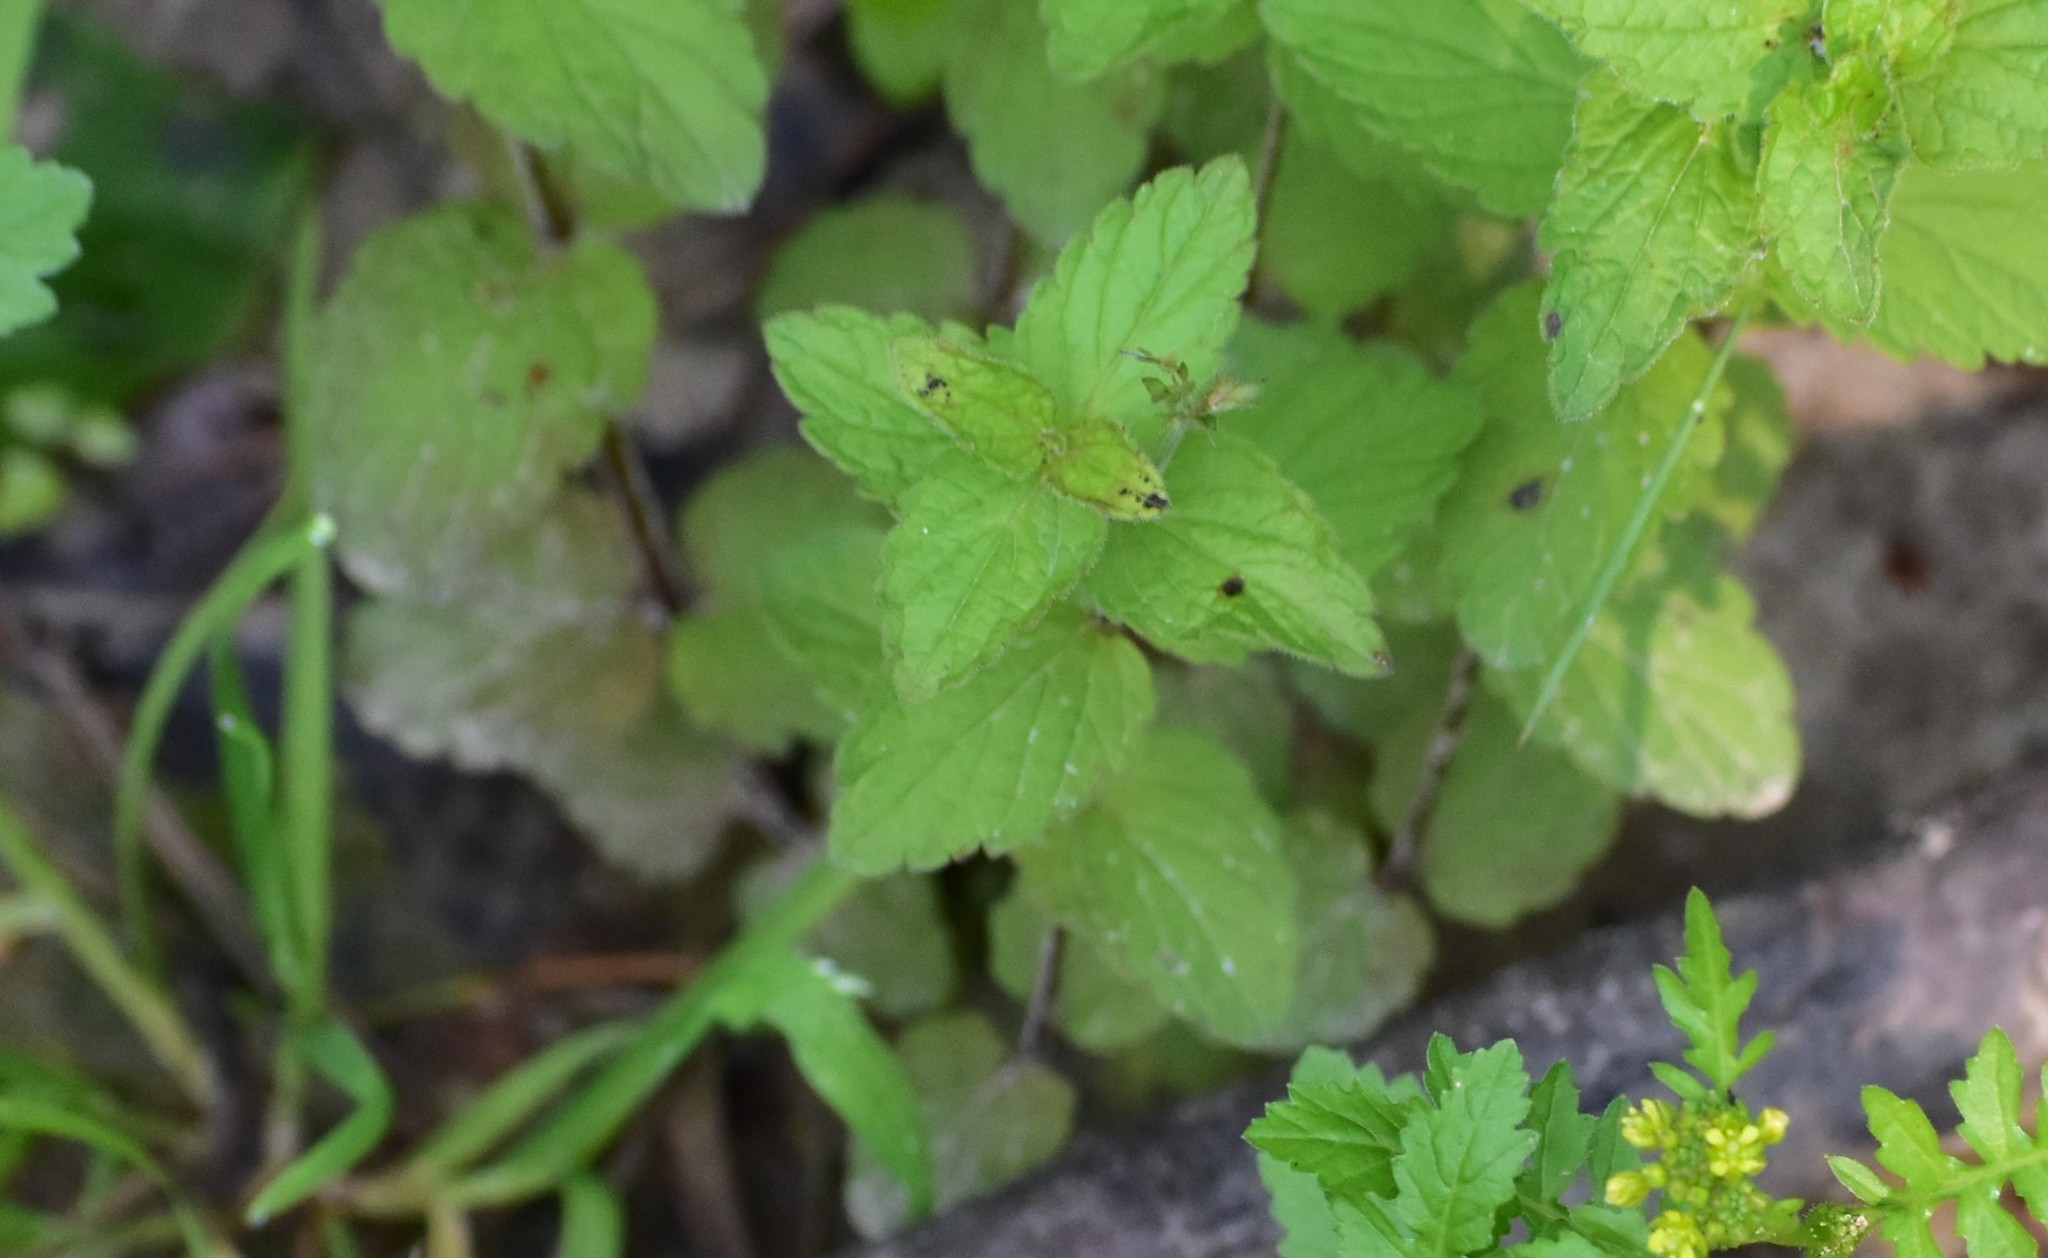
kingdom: Plantae
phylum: Tracheophyta
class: Magnoliopsida
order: Lamiales
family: Plantaginaceae
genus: Veronica
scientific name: Veronica chamaedrys
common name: Germander speedwell
